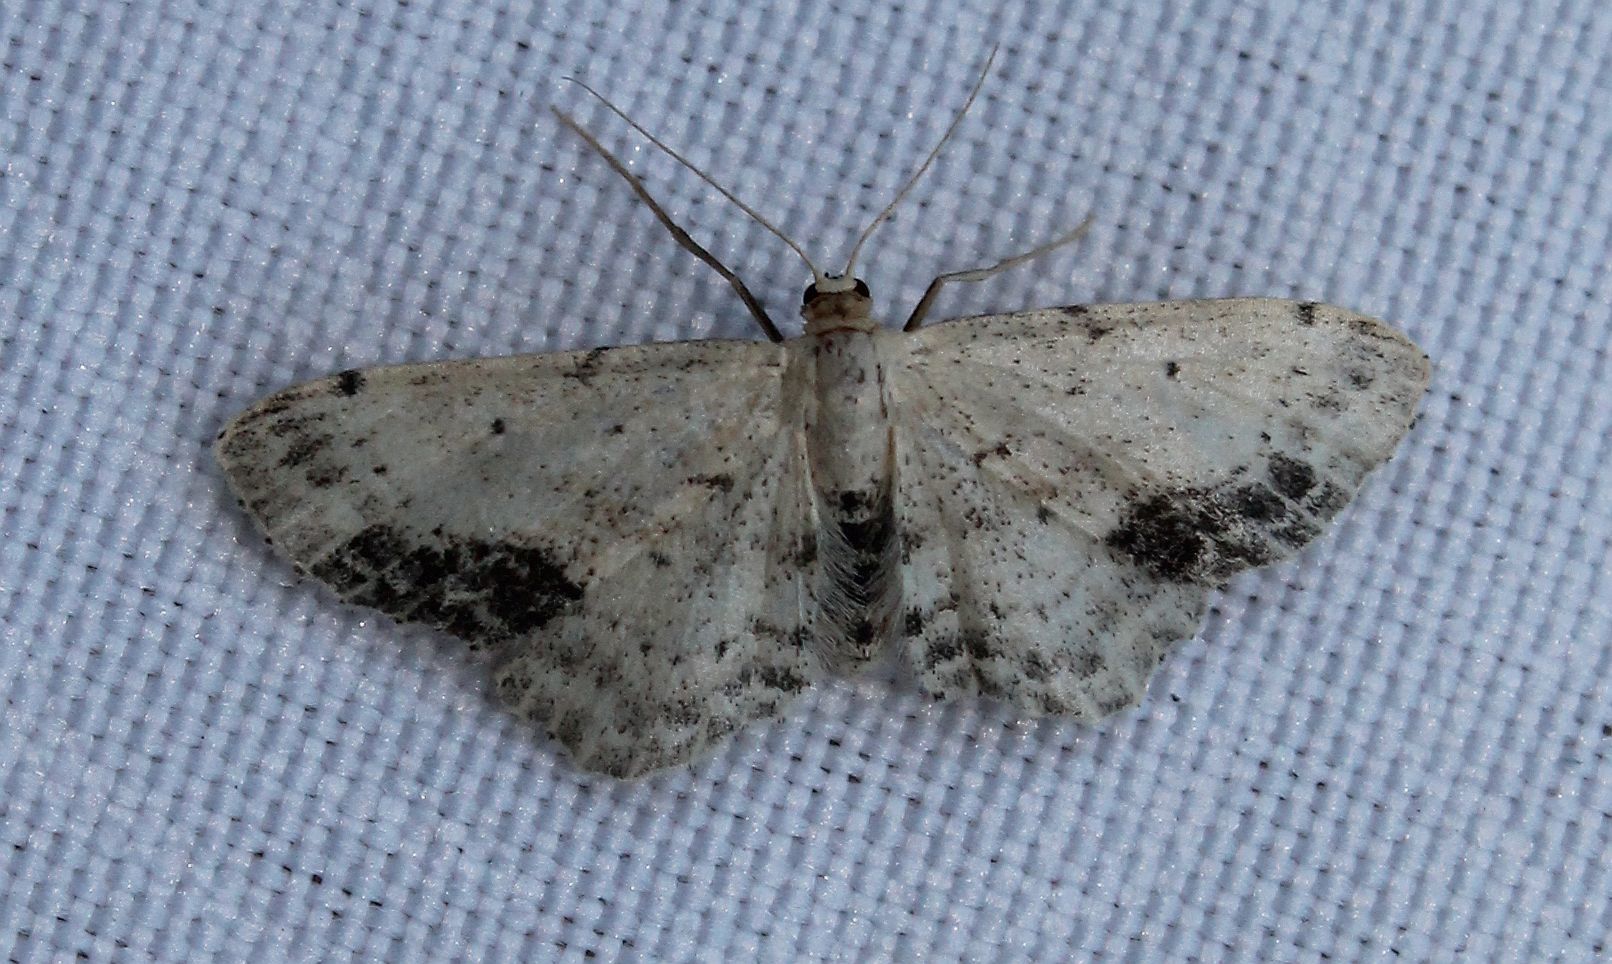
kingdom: Animalia
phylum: Arthropoda
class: Insecta
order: Lepidoptera
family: Geometridae
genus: Idaea
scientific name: Idaea dimidiata
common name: Single-dotted wave
